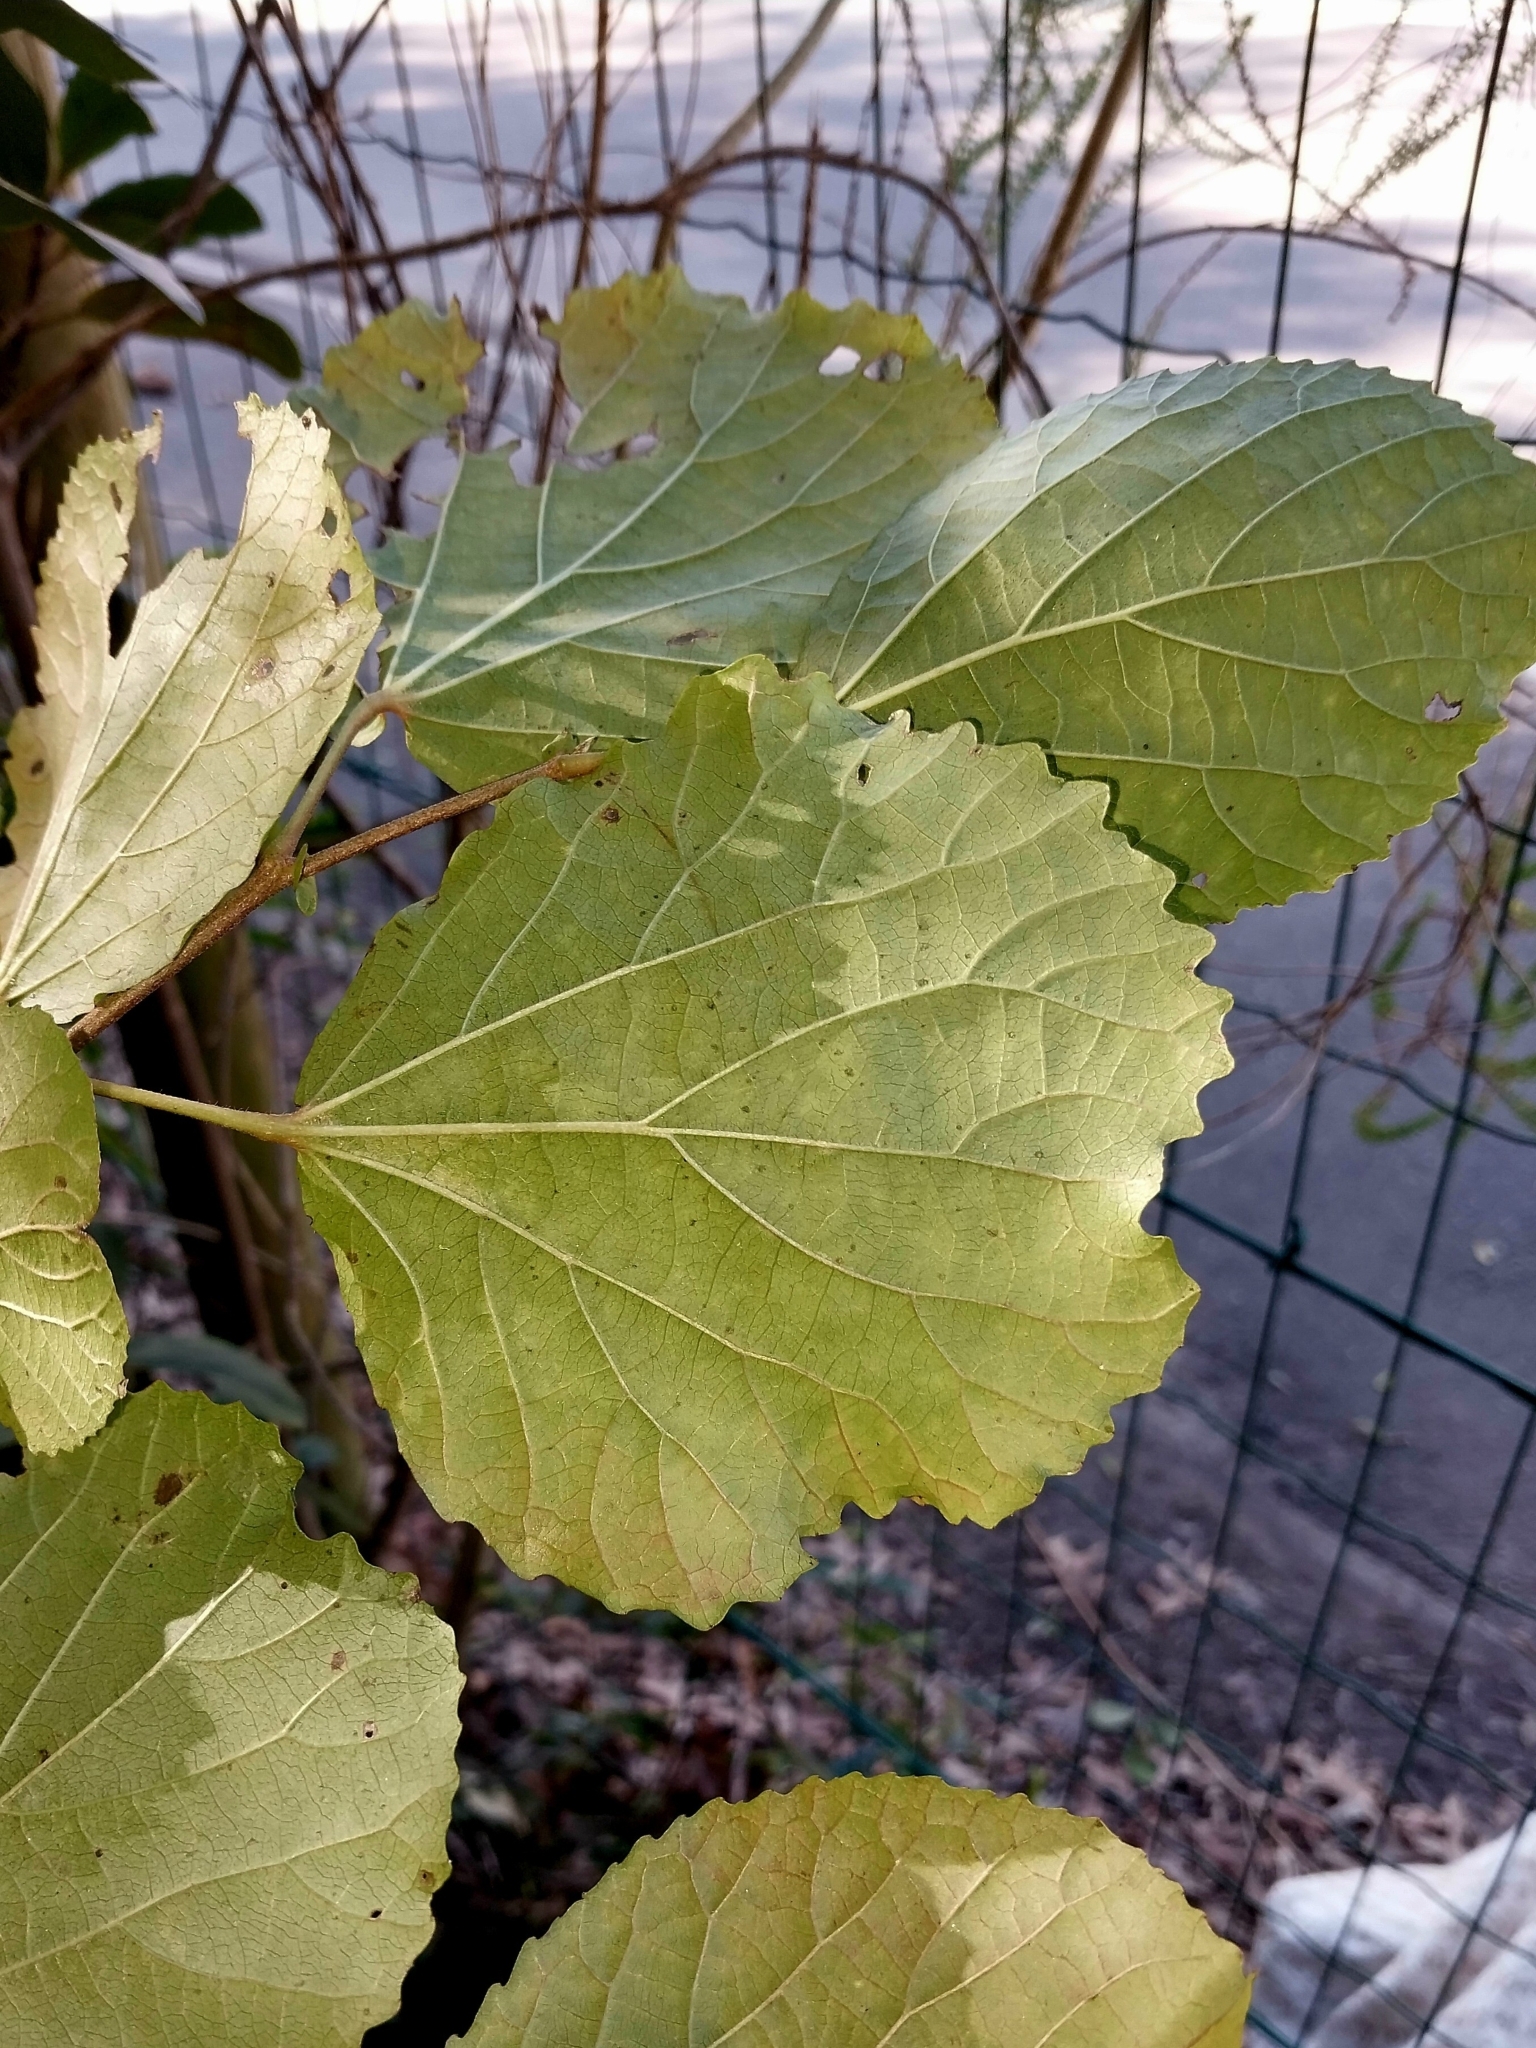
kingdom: Plantae
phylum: Tracheophyta
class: Magnoliopsida
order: Malpighiales
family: Salicaceae
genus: Trimeria
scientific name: Trimeria grandifolia
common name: Wild mulberry
